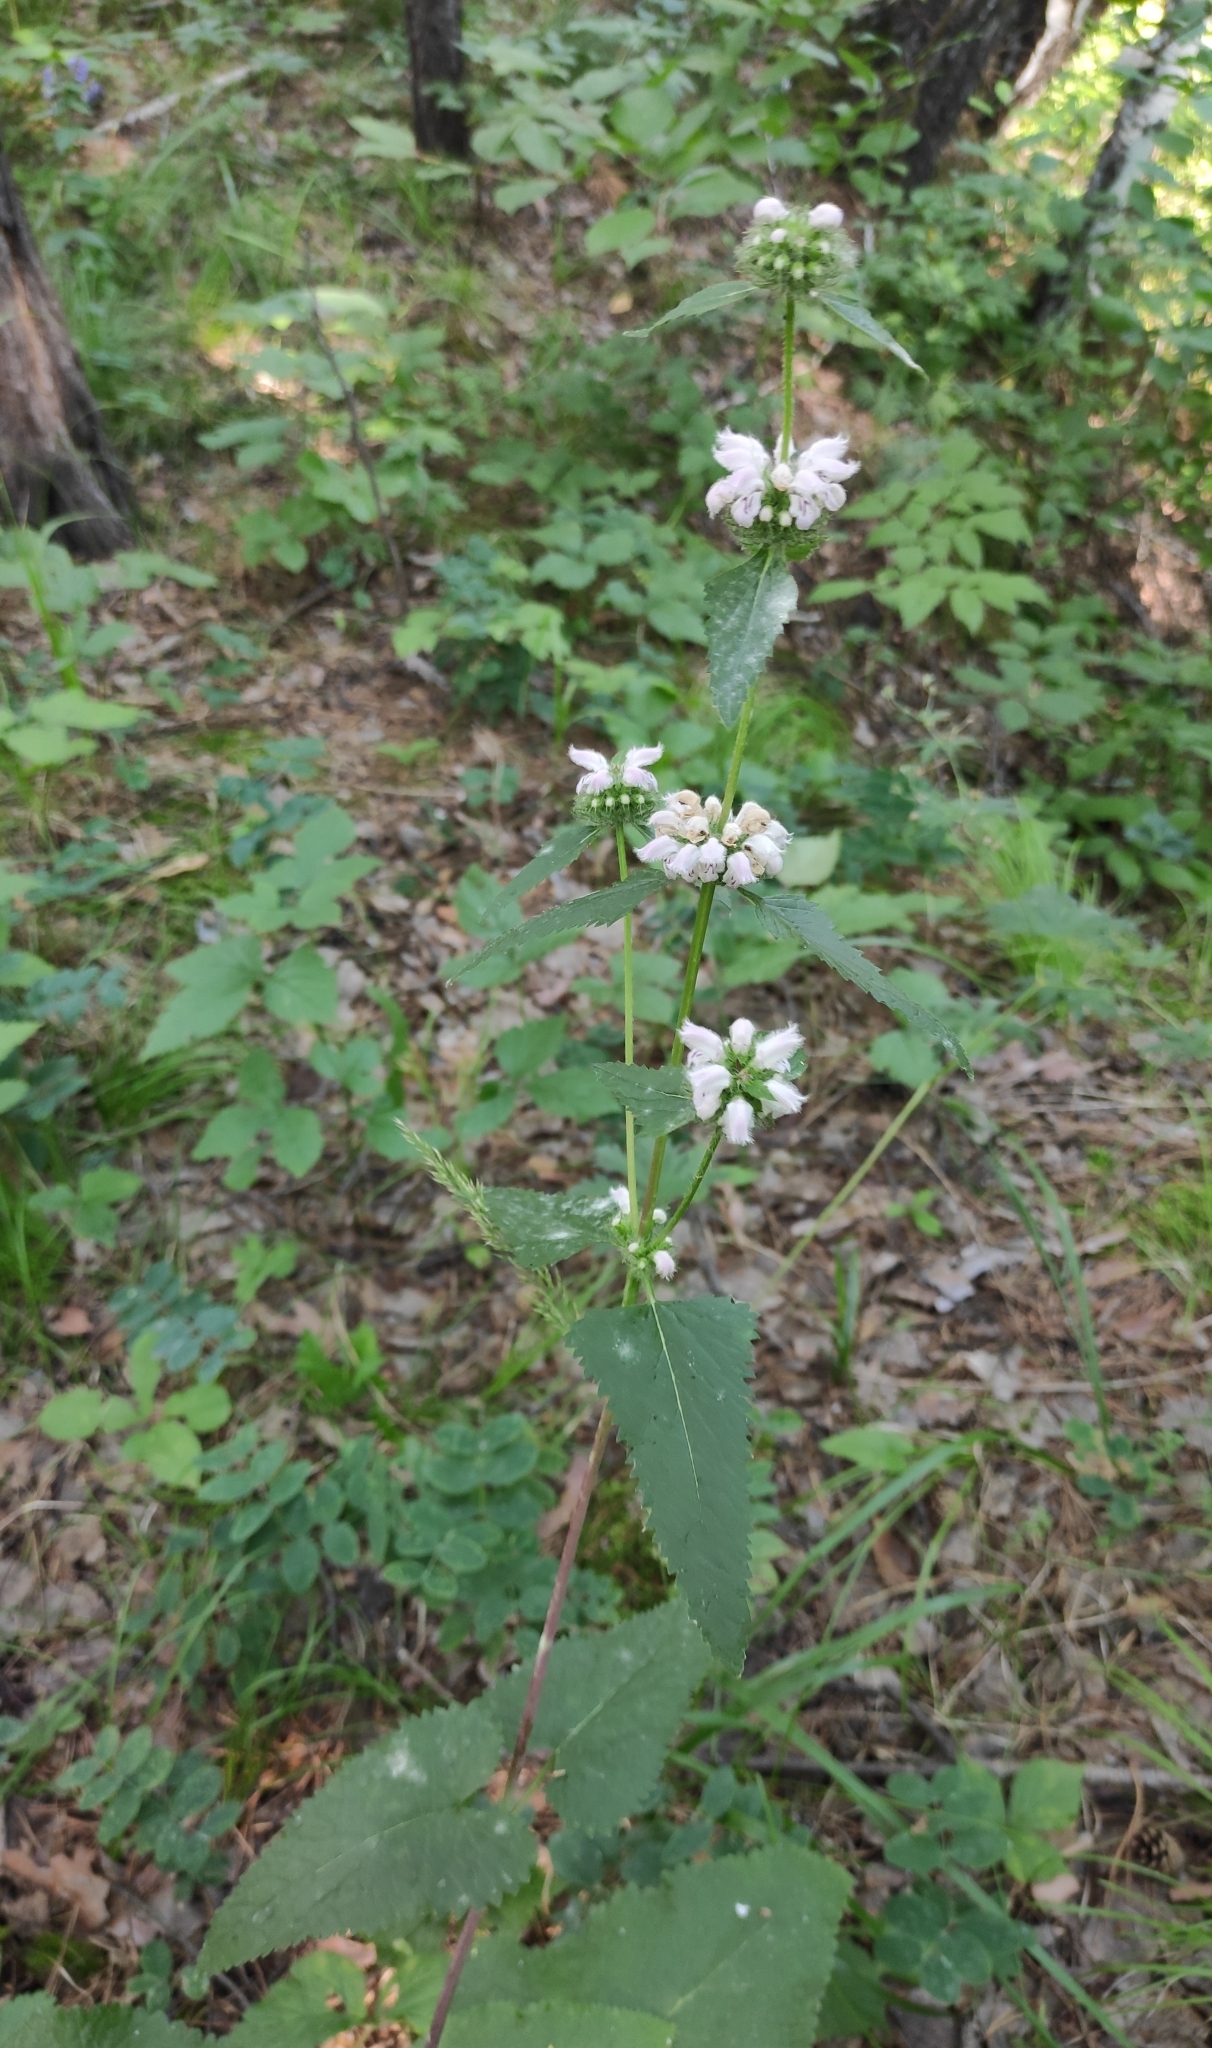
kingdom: Plantae
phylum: Tracheophyta
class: Magnoliopsida
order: Lamiales
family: Lamiaceae
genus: Phlomoides
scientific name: Phlomoides tuberosa
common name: Tuberous jerusalem sage
